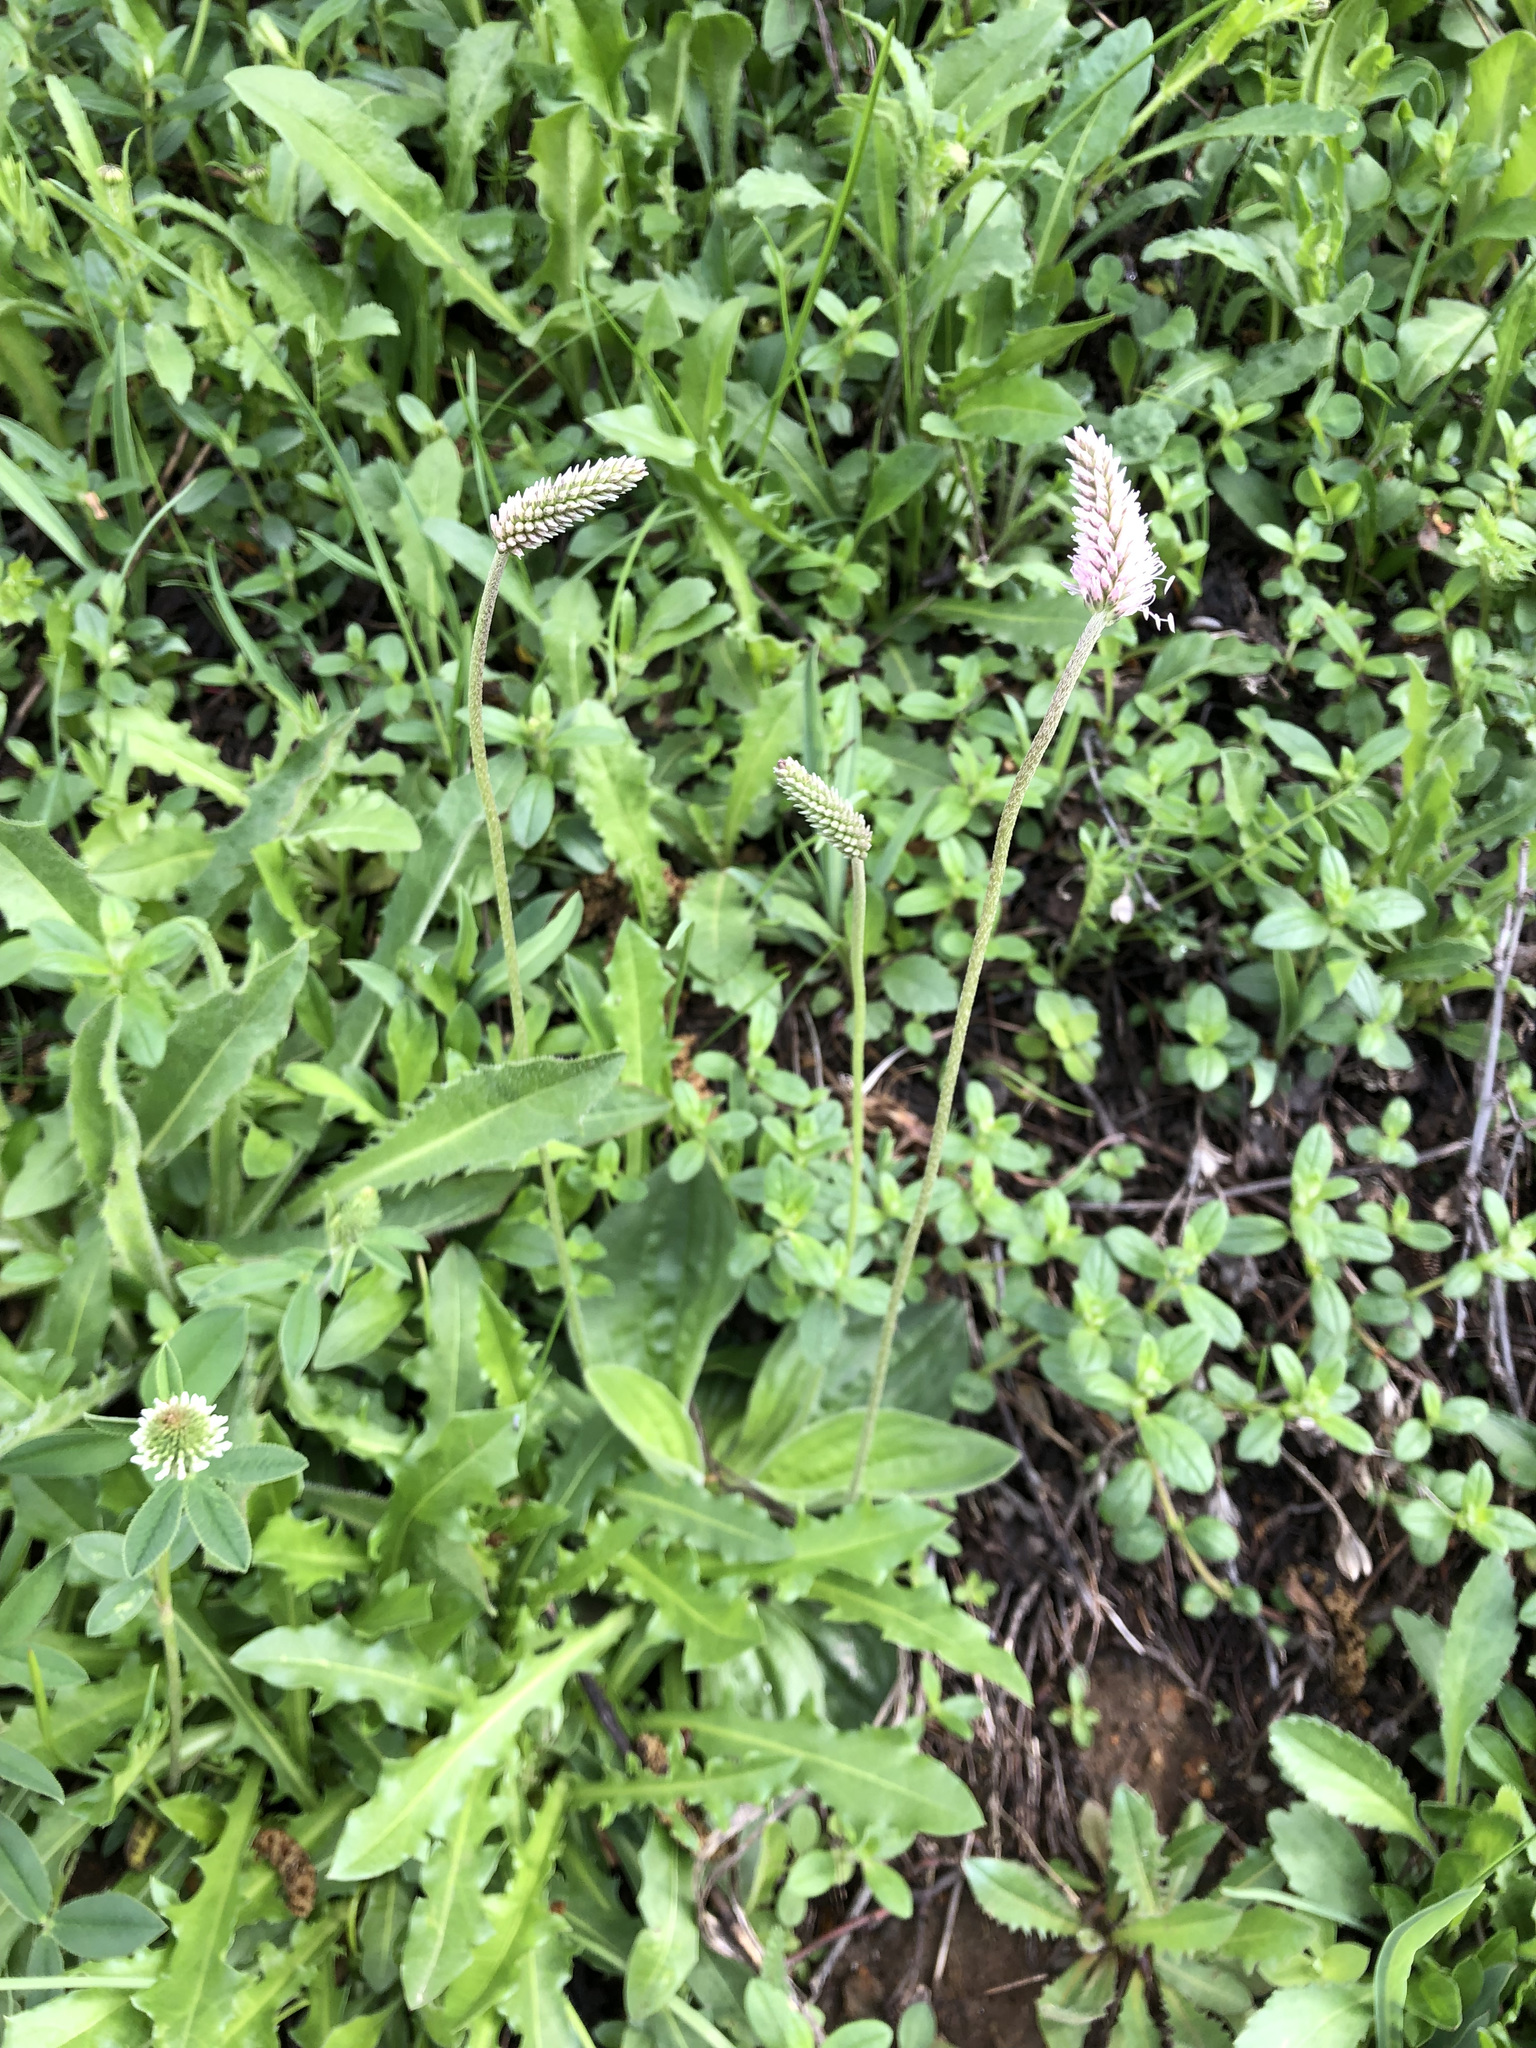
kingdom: Plantae
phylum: Tracheophyta
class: Magnoliopsida
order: Lamiales
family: Plantaginaceae
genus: Plantago
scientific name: Plantago media
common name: Hoary plantain
